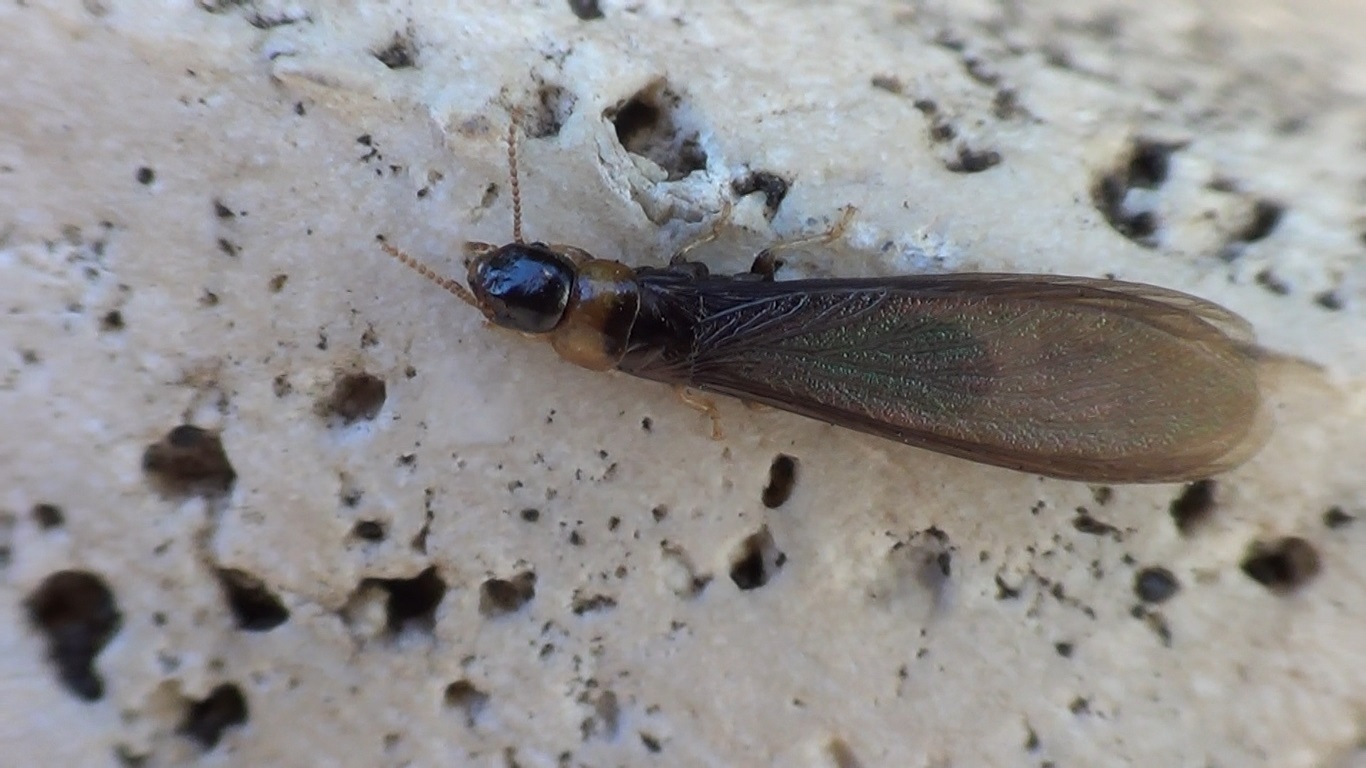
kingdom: Animalia
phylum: Arthropoda
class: Insecta
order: Blattodea
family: Kalotermitidae
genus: Kalotermes
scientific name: Kalotermes flavicollis
